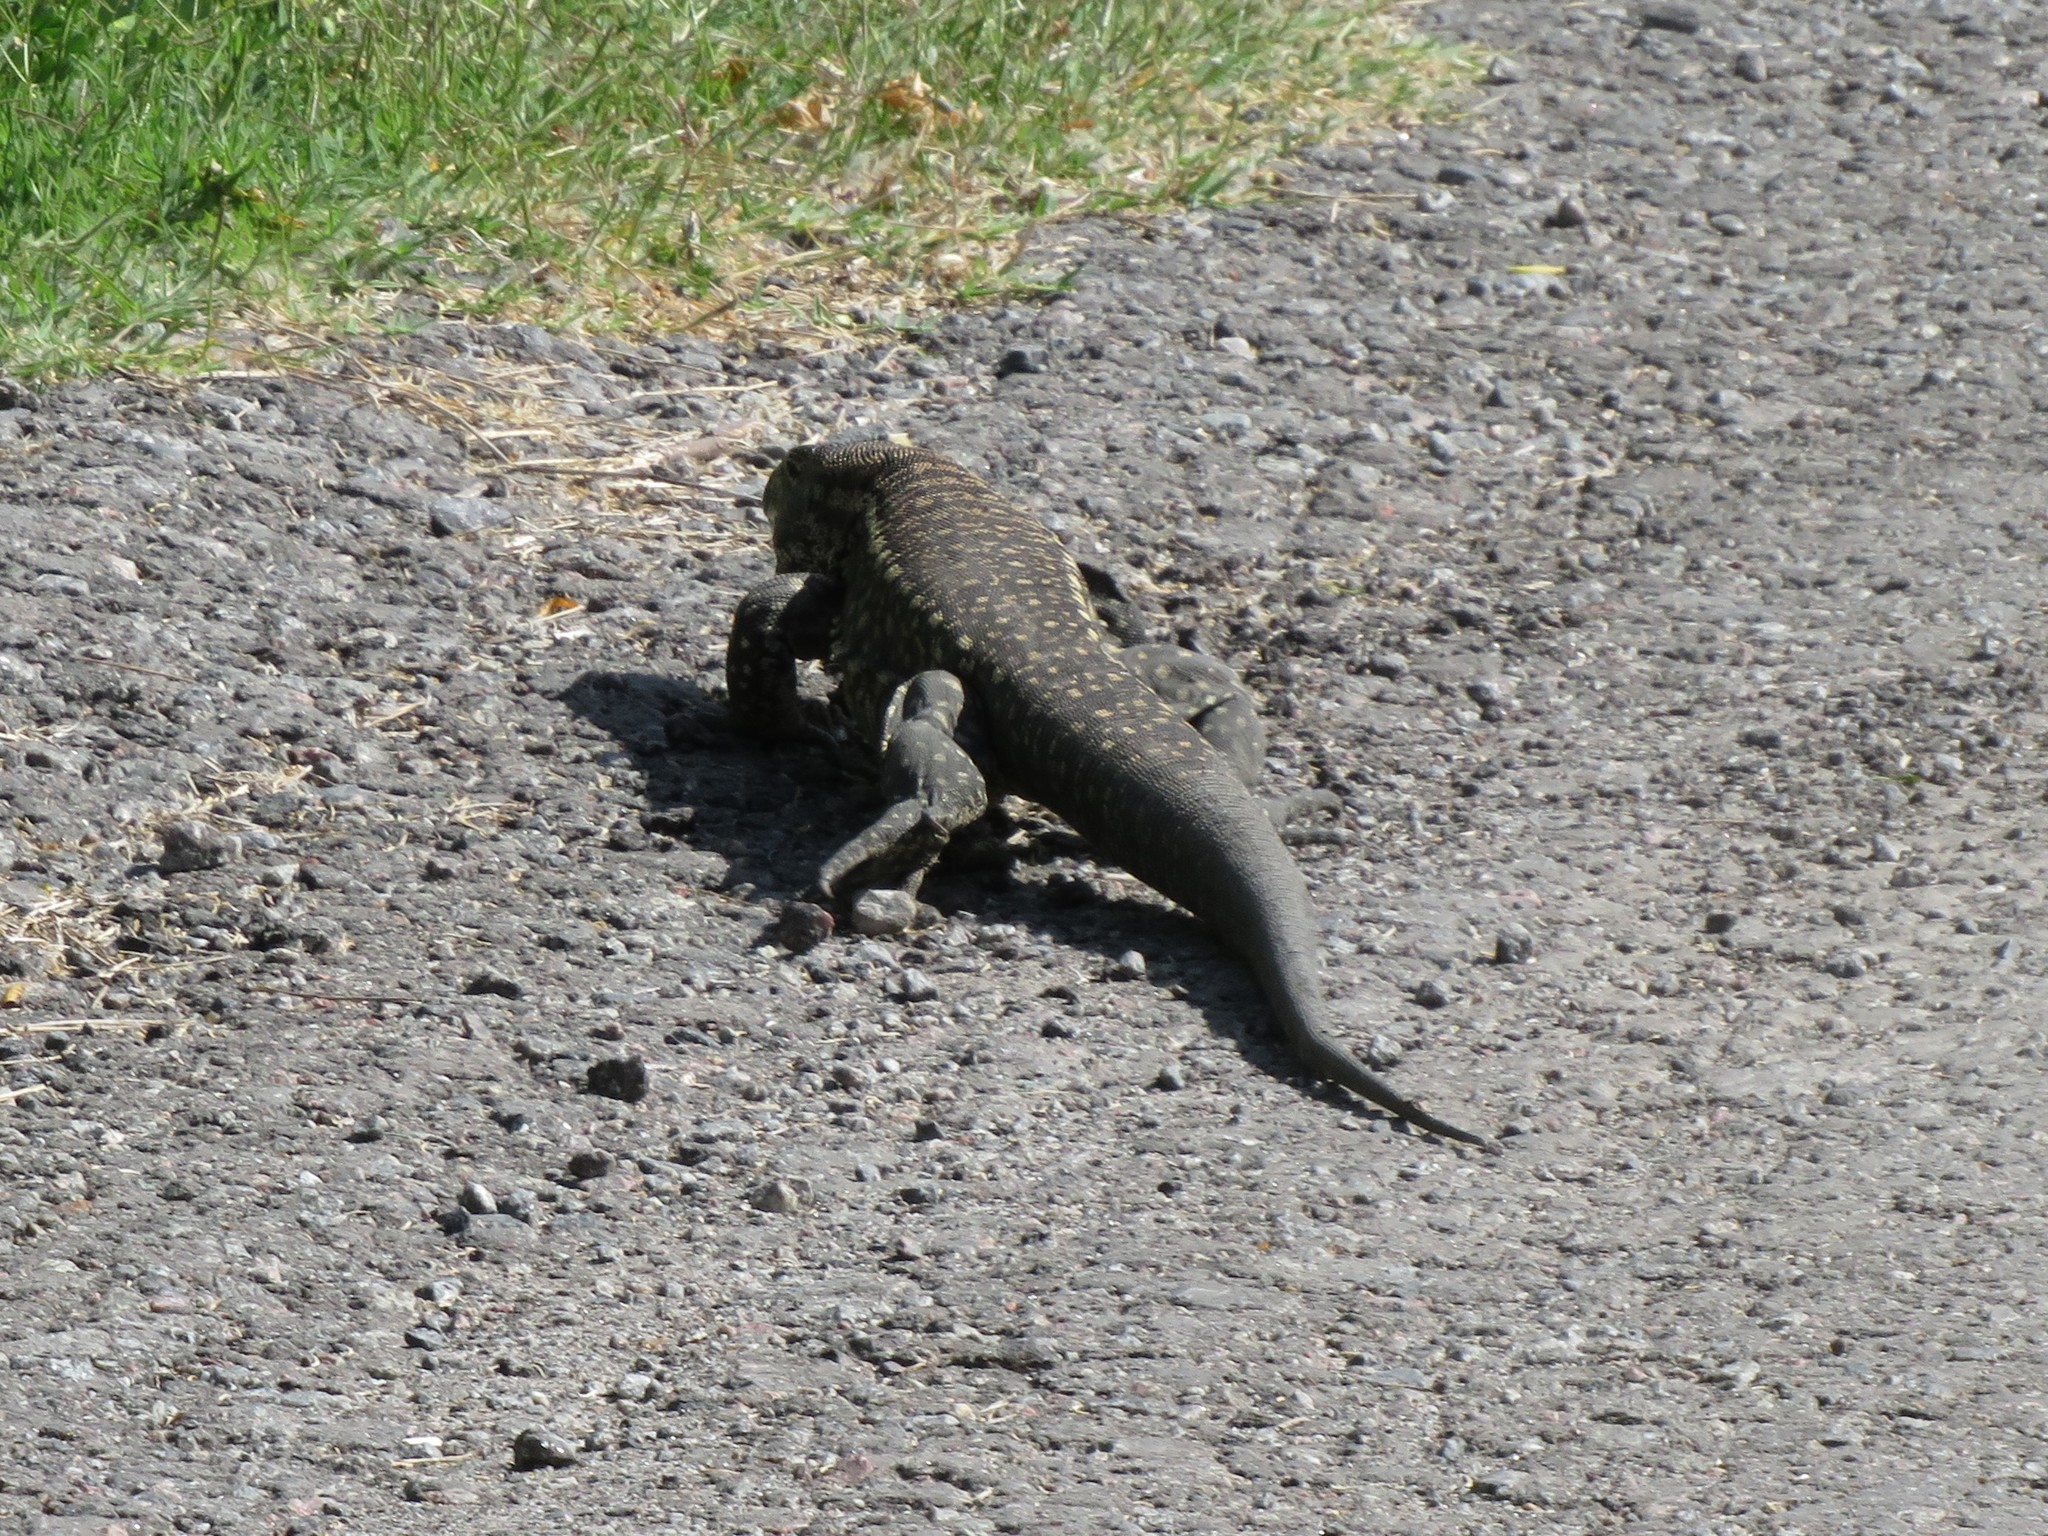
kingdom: Animalia
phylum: Chordata
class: Squamata
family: Teiidae
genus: Salvator
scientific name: Salvator merianae
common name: Argentine black and white tegu
